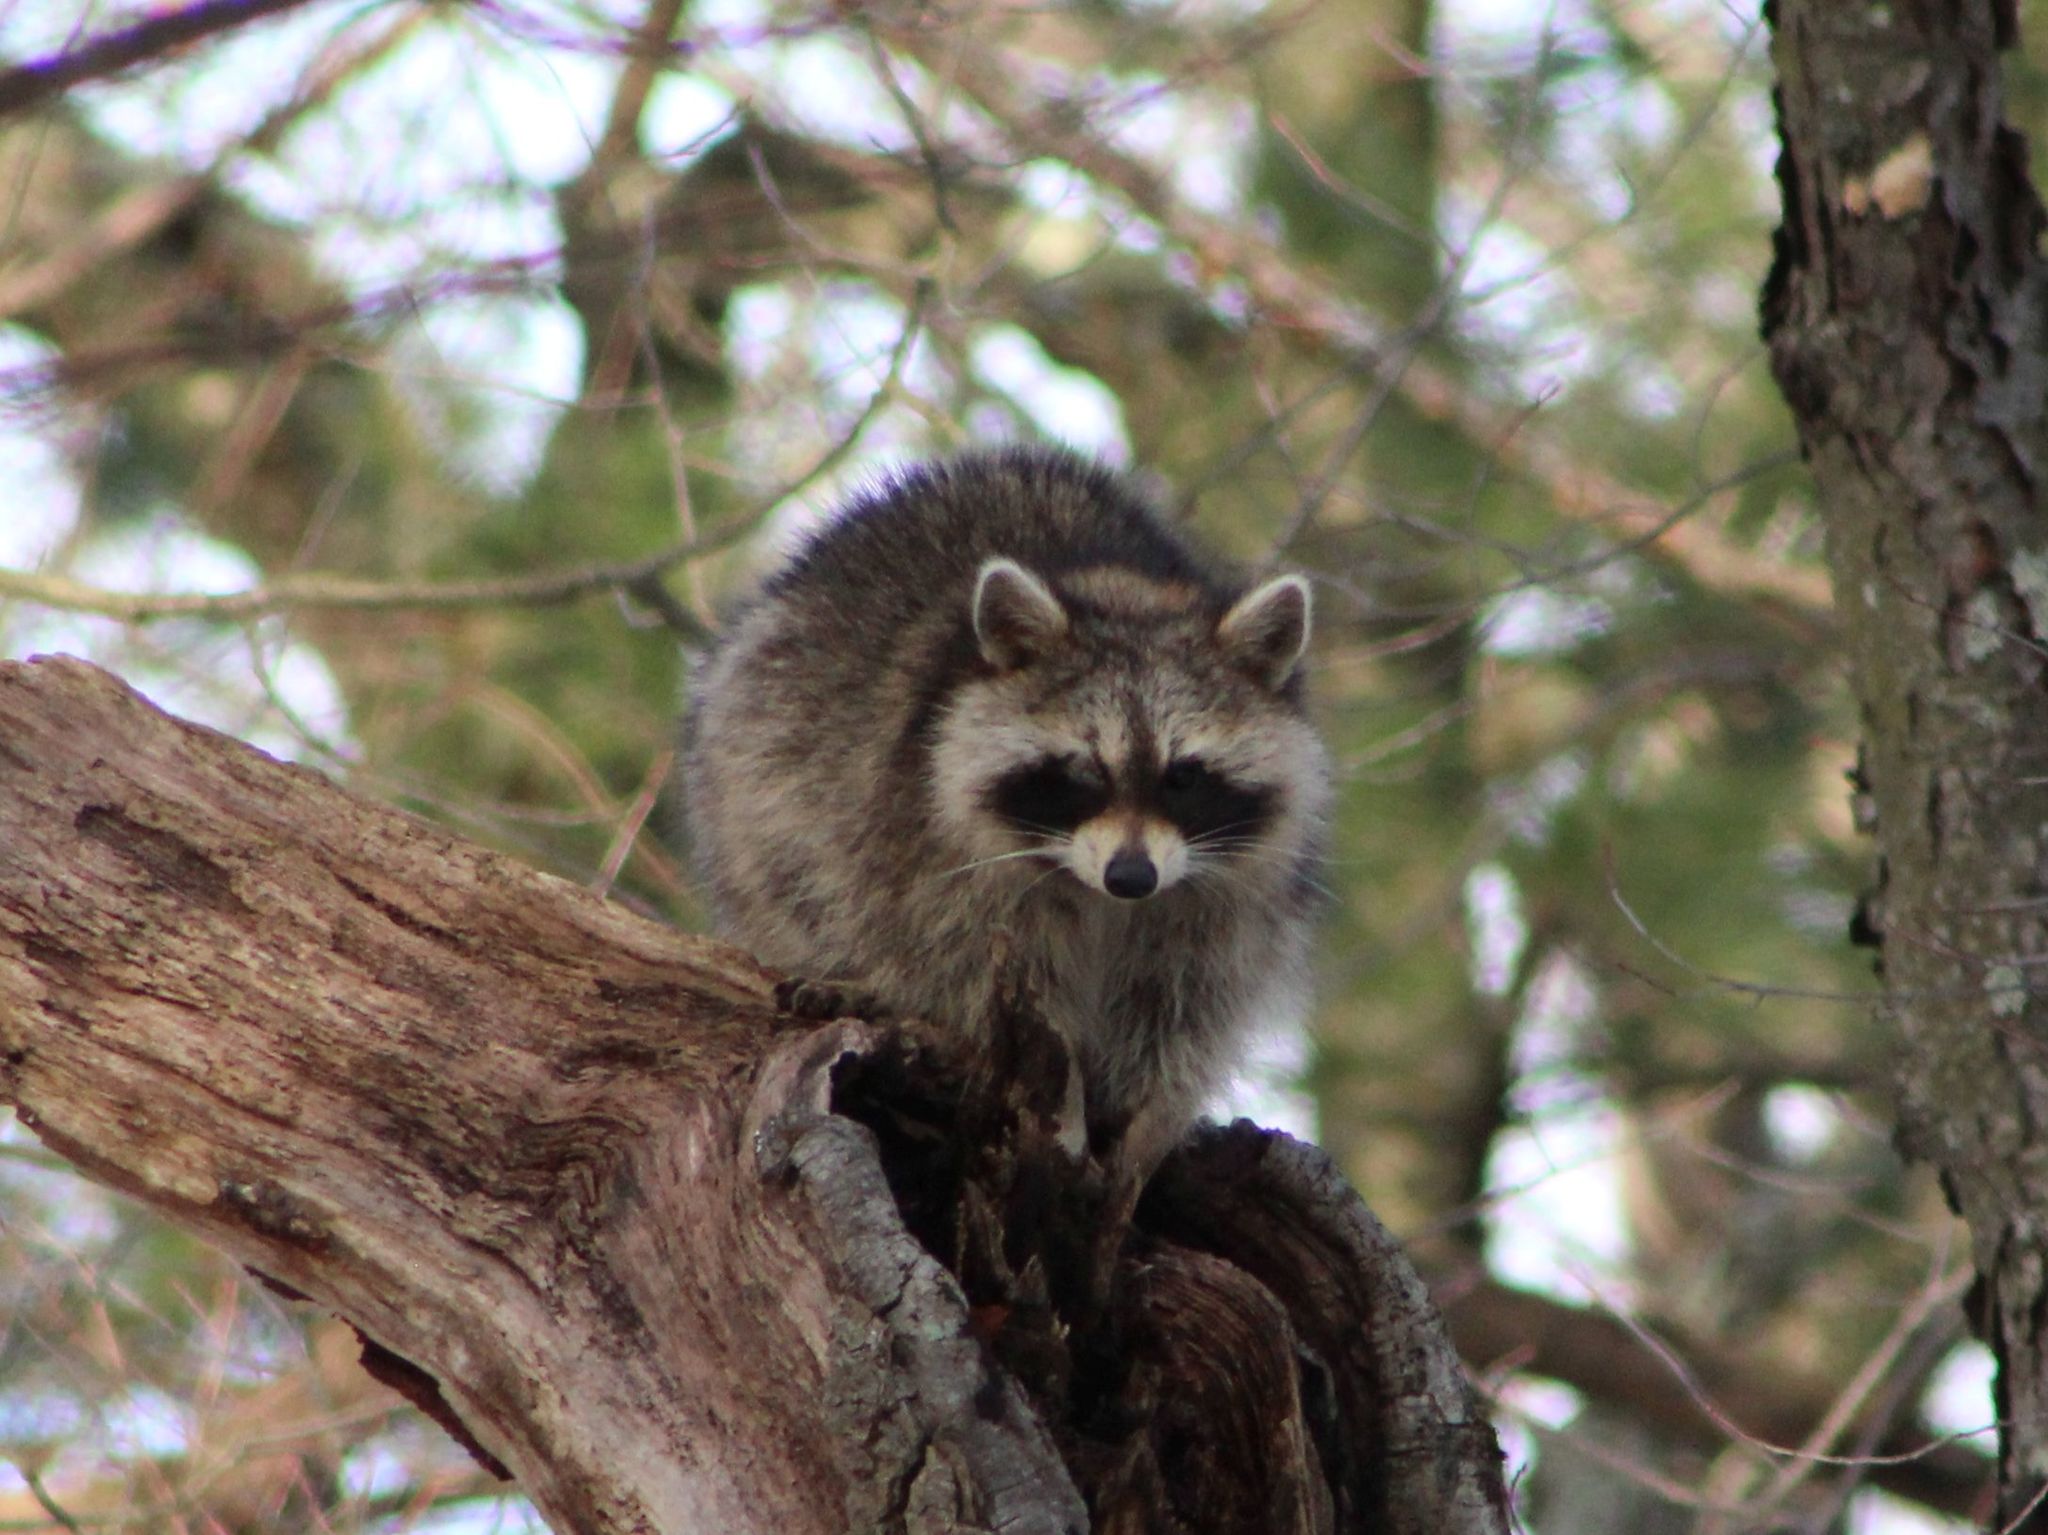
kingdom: Animalia
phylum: Chordata
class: Mammalia
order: Carnivora
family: Procyonidae
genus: Procyon
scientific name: Procyon lotor
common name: Raccoon
